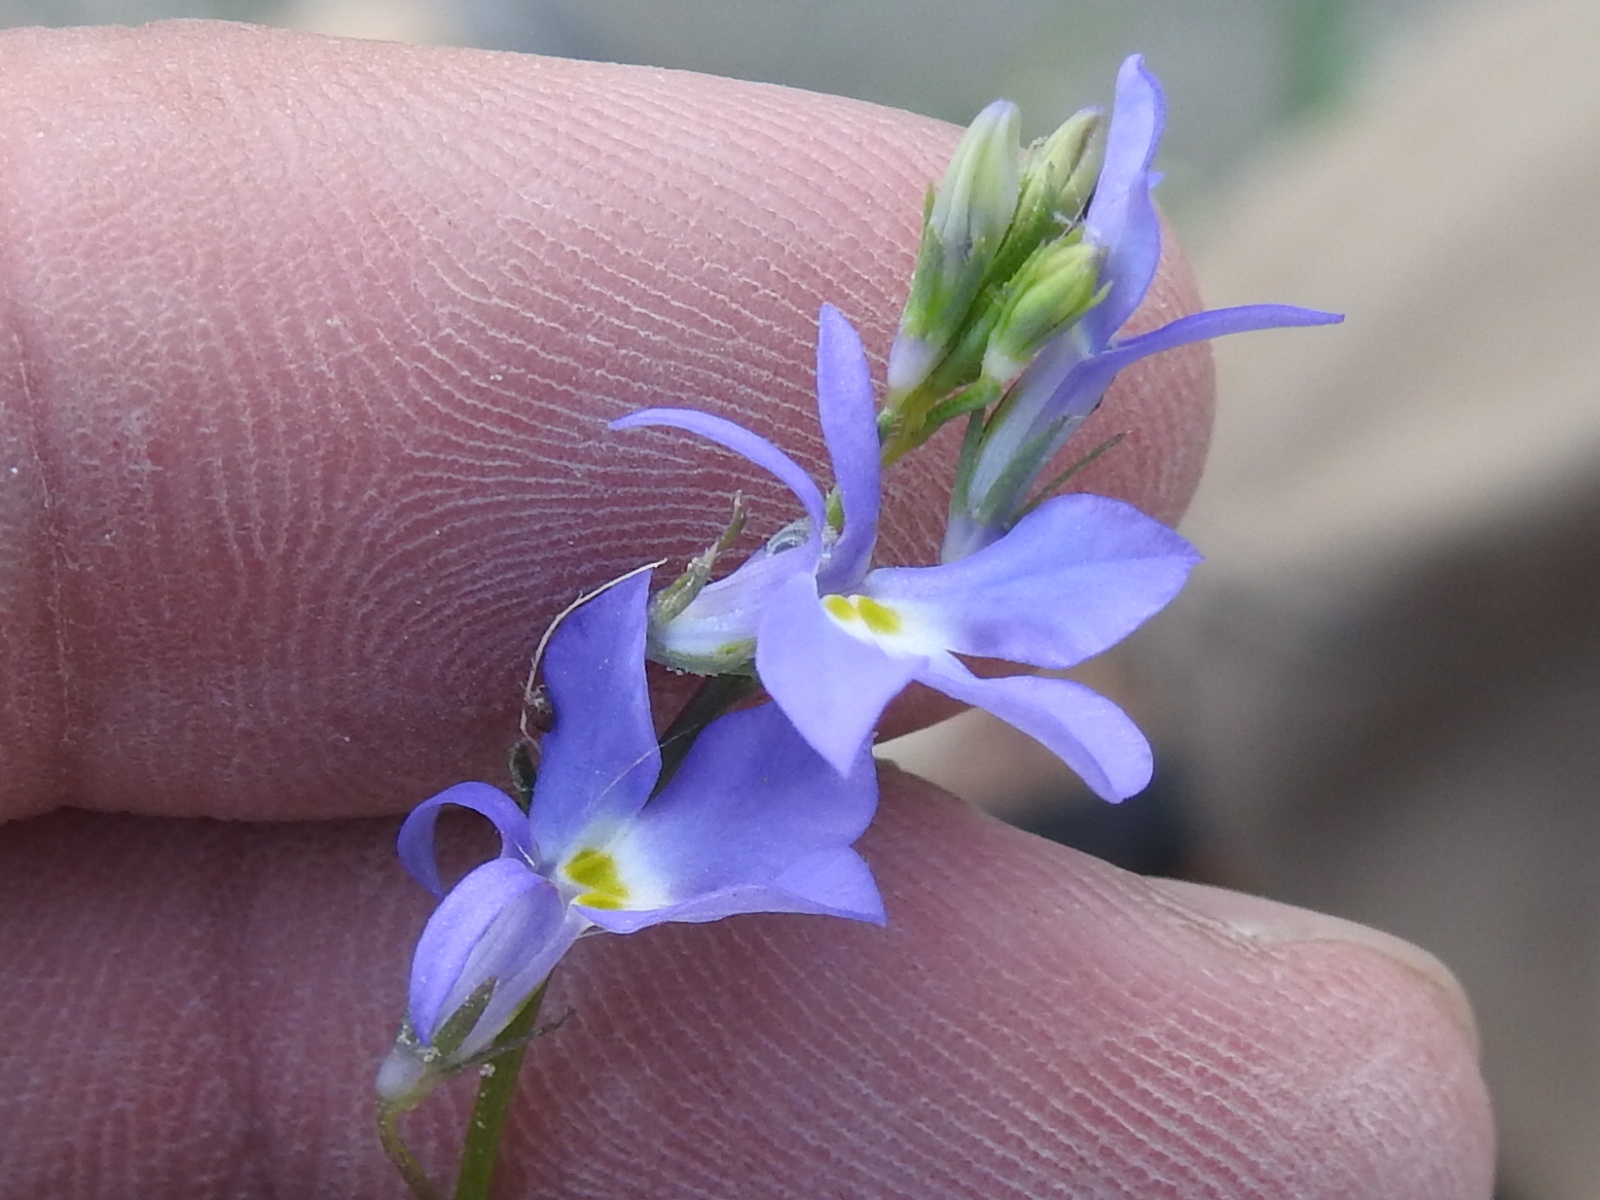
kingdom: Plantae
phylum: Tracheophyta
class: Magnoliopsida
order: Asterales
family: Campanulaceae
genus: Lobelia
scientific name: Lobelia berlandieri
